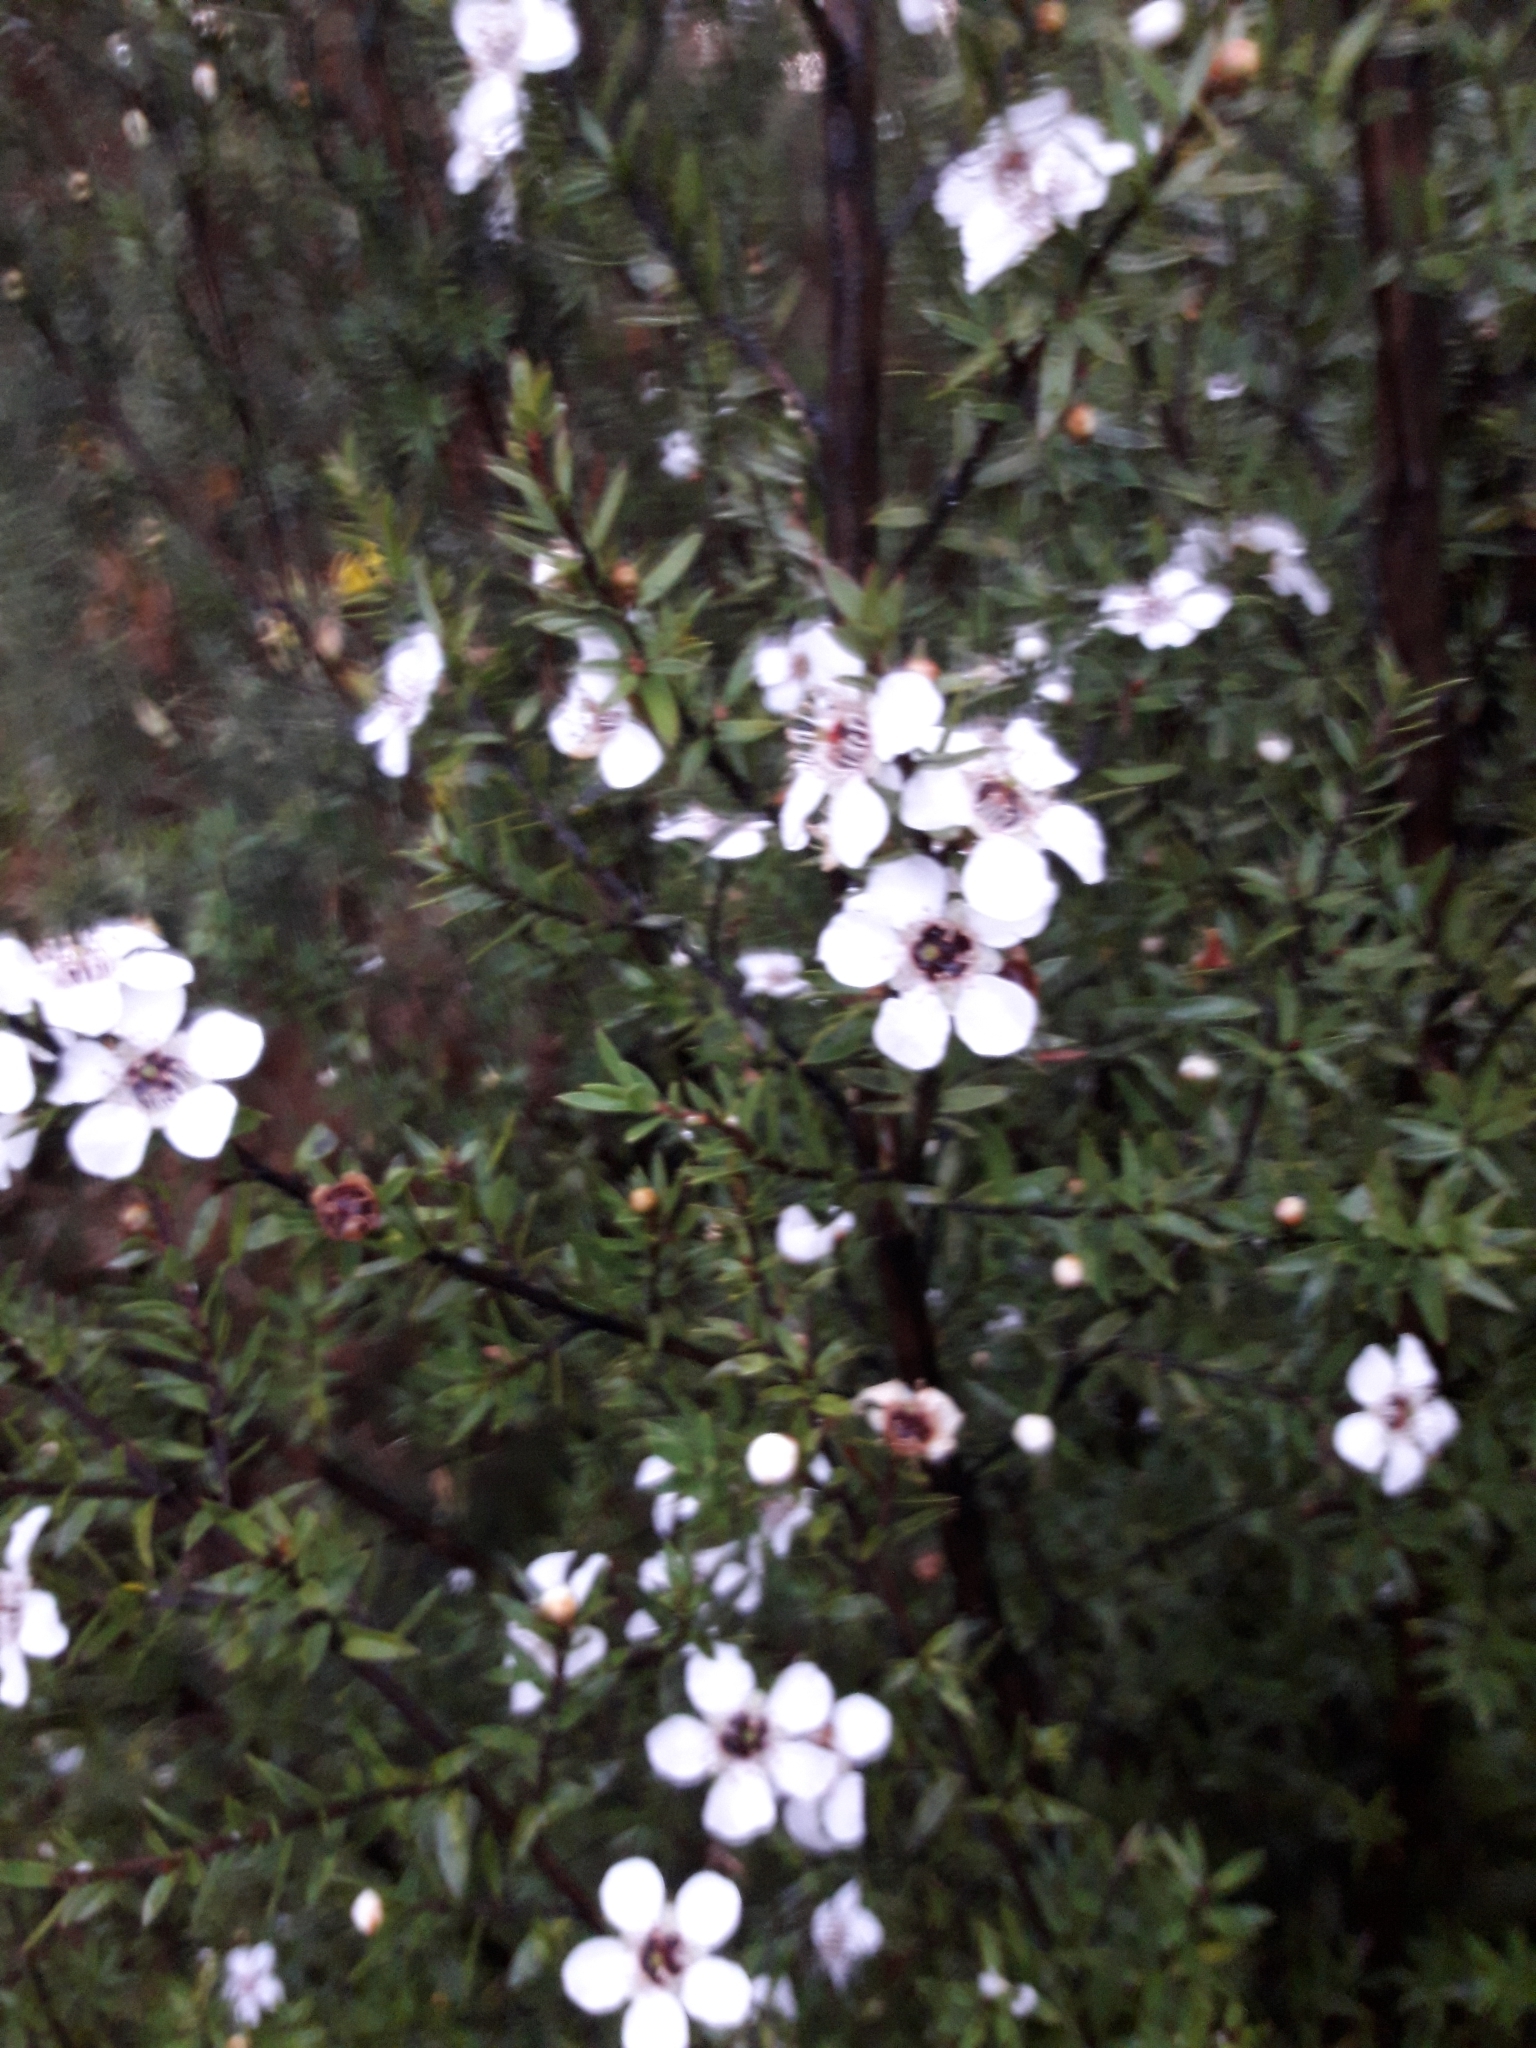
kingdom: Plantae
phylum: Tracheophyta
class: Magnoliopsida
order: Myrtales
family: Myrtaceae
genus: Leptospermum
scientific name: Leptospermum scoparium
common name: Broom tea-tree
